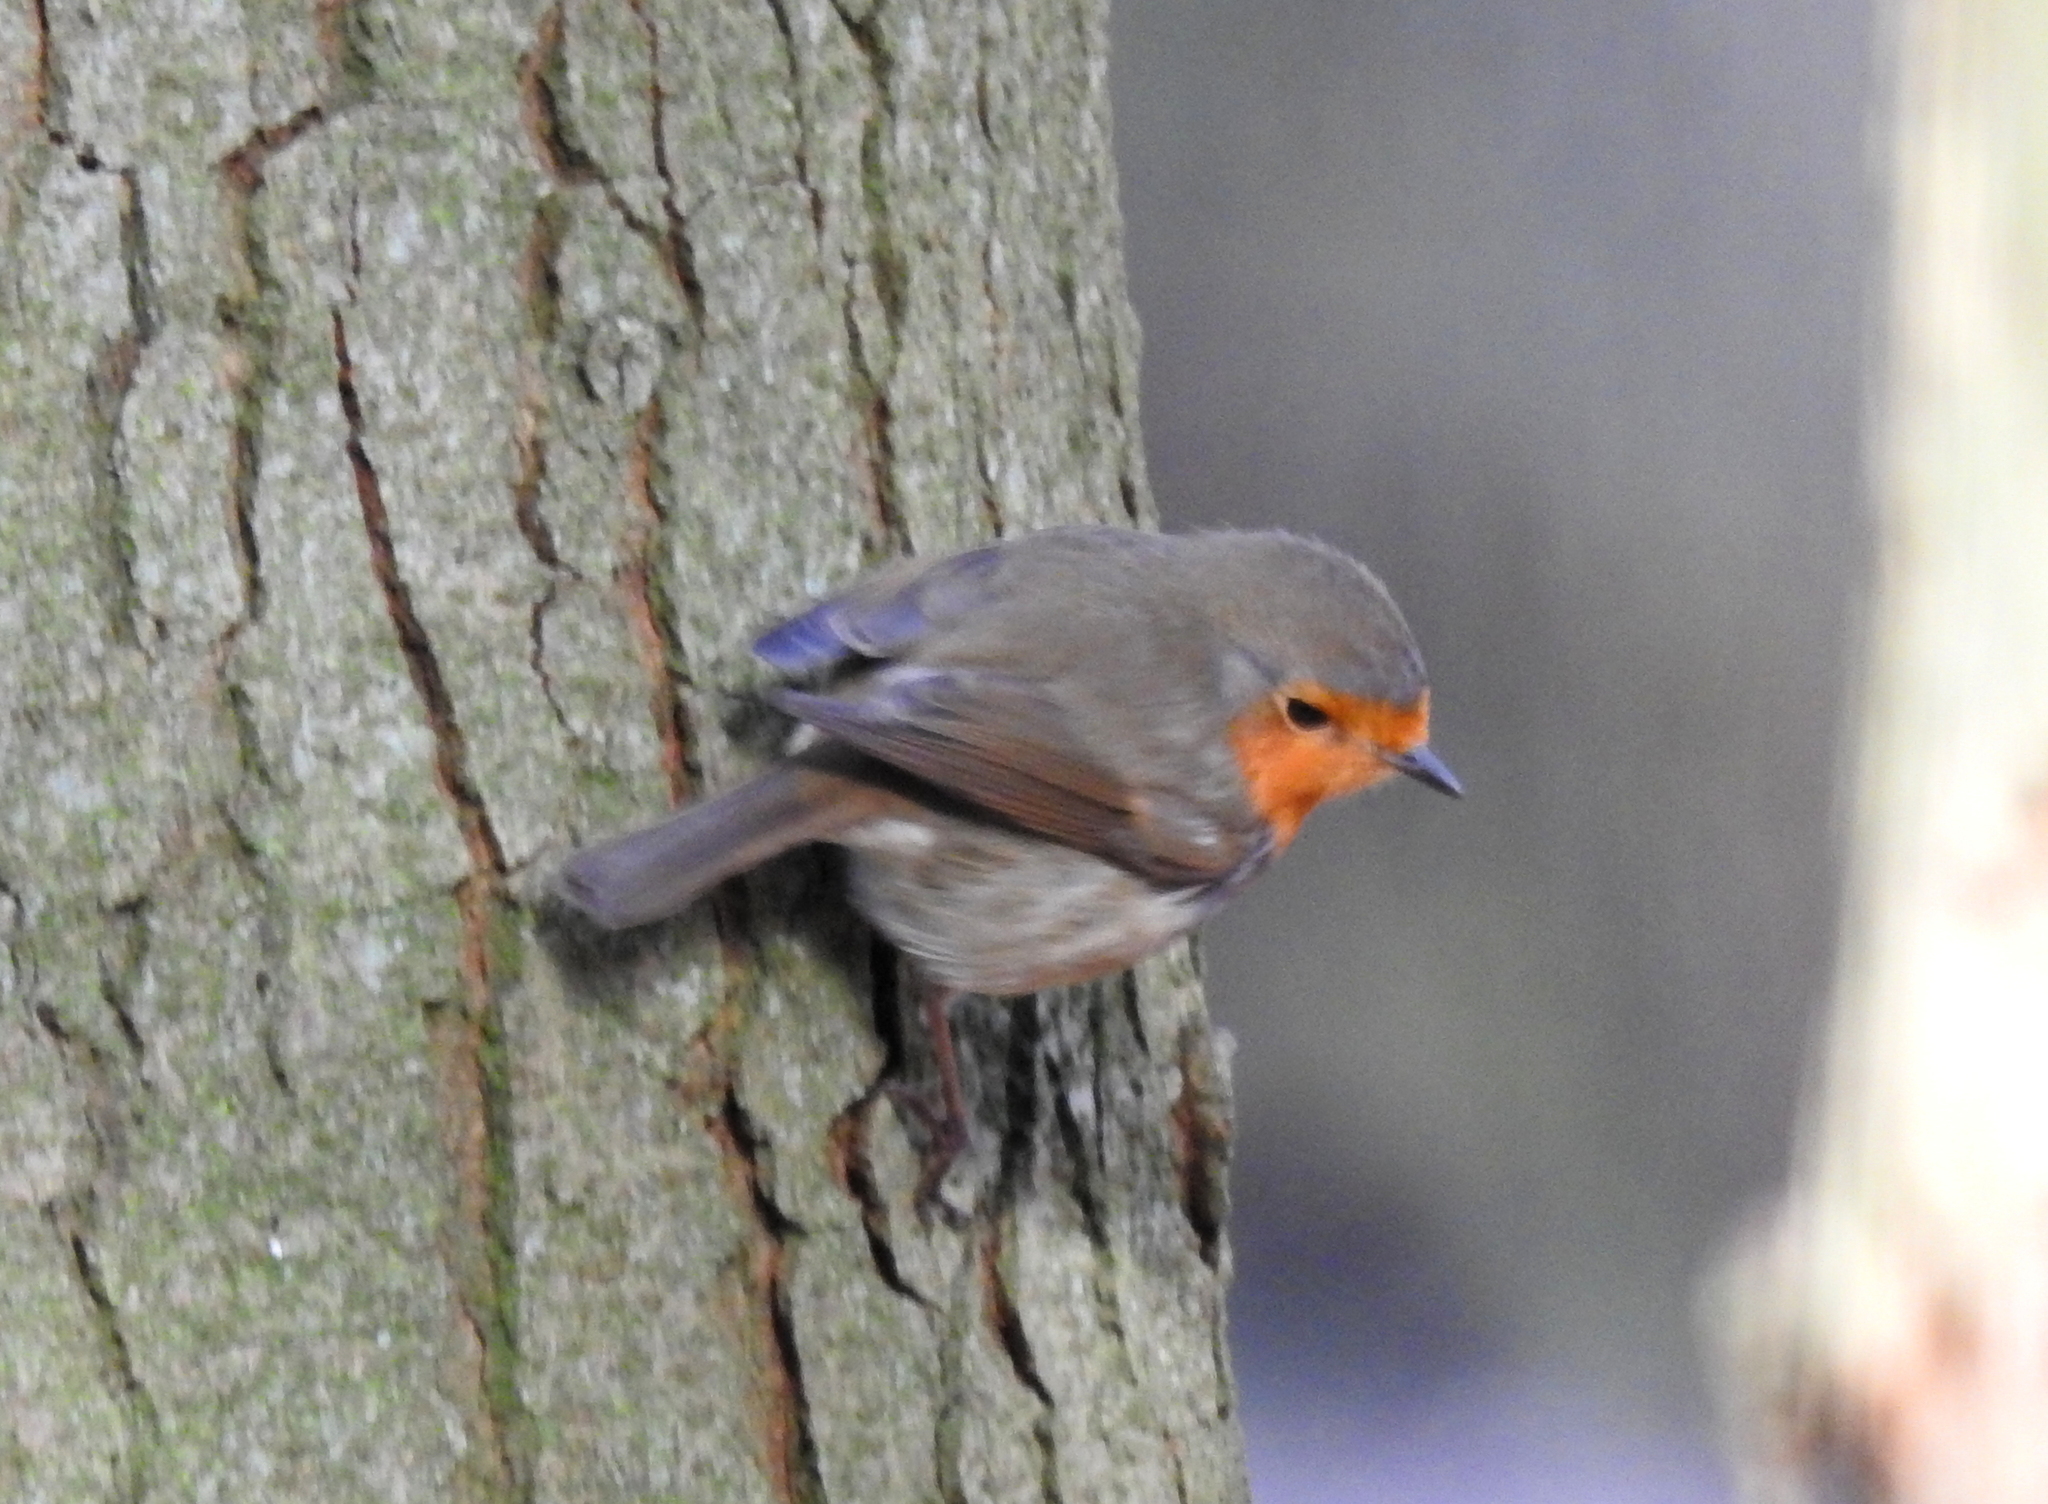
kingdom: Animalia
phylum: Chordata
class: Aves
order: Passeriformes
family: Muscicapidae
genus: Erithacus
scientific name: Erithacus rubecula
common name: European robin
